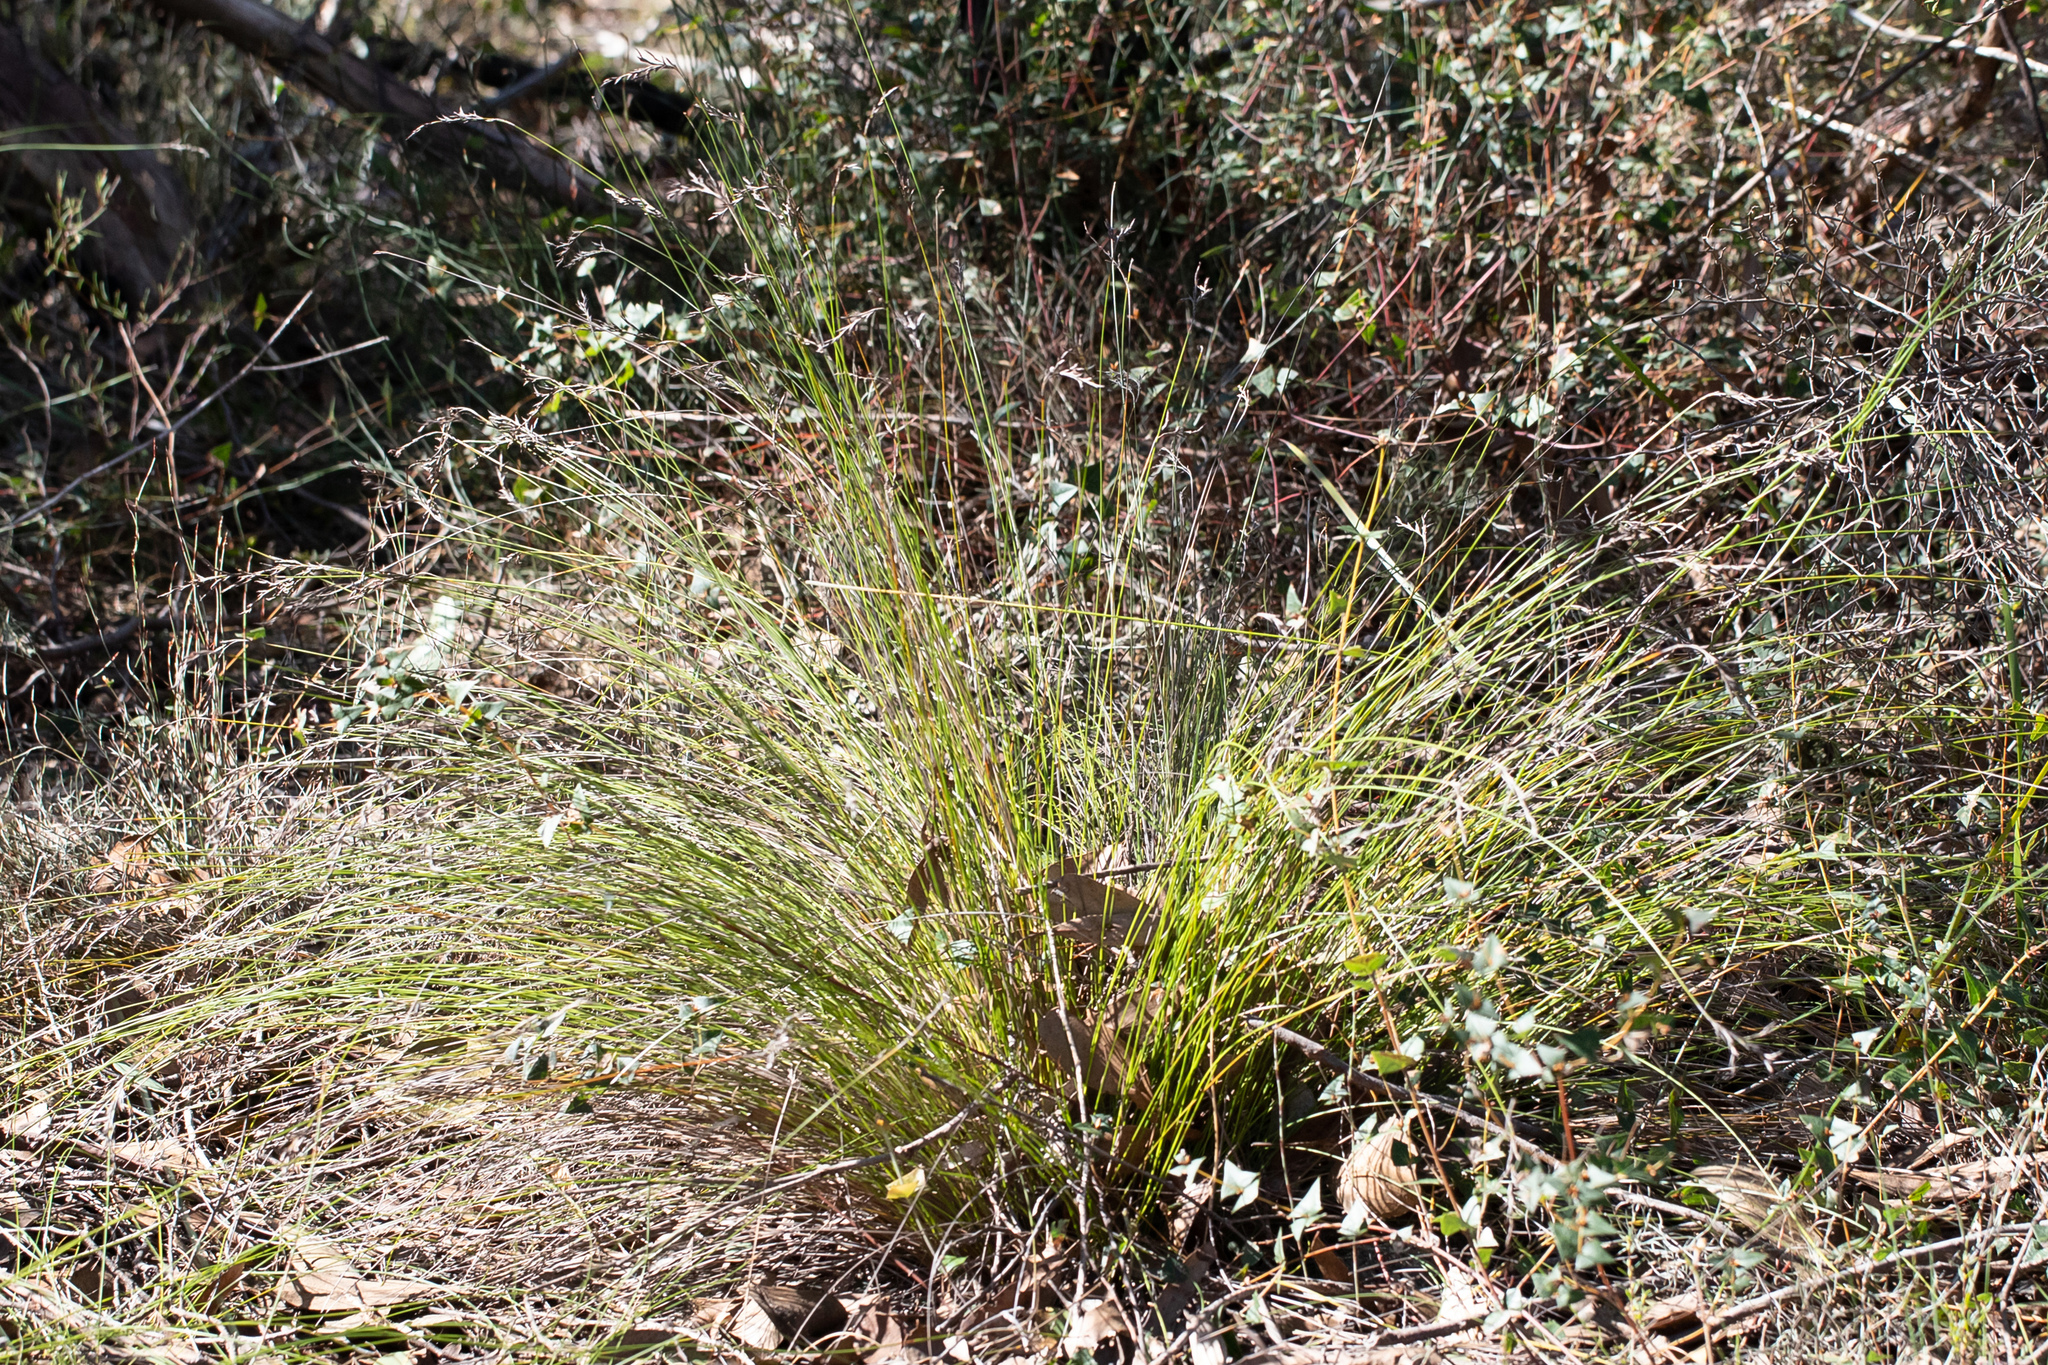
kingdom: Plantae
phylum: Tracheophyta
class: Liliopsida
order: Poales
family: Cyperaceae
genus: Lepidosperma
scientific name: Lepidosperma semiteres
